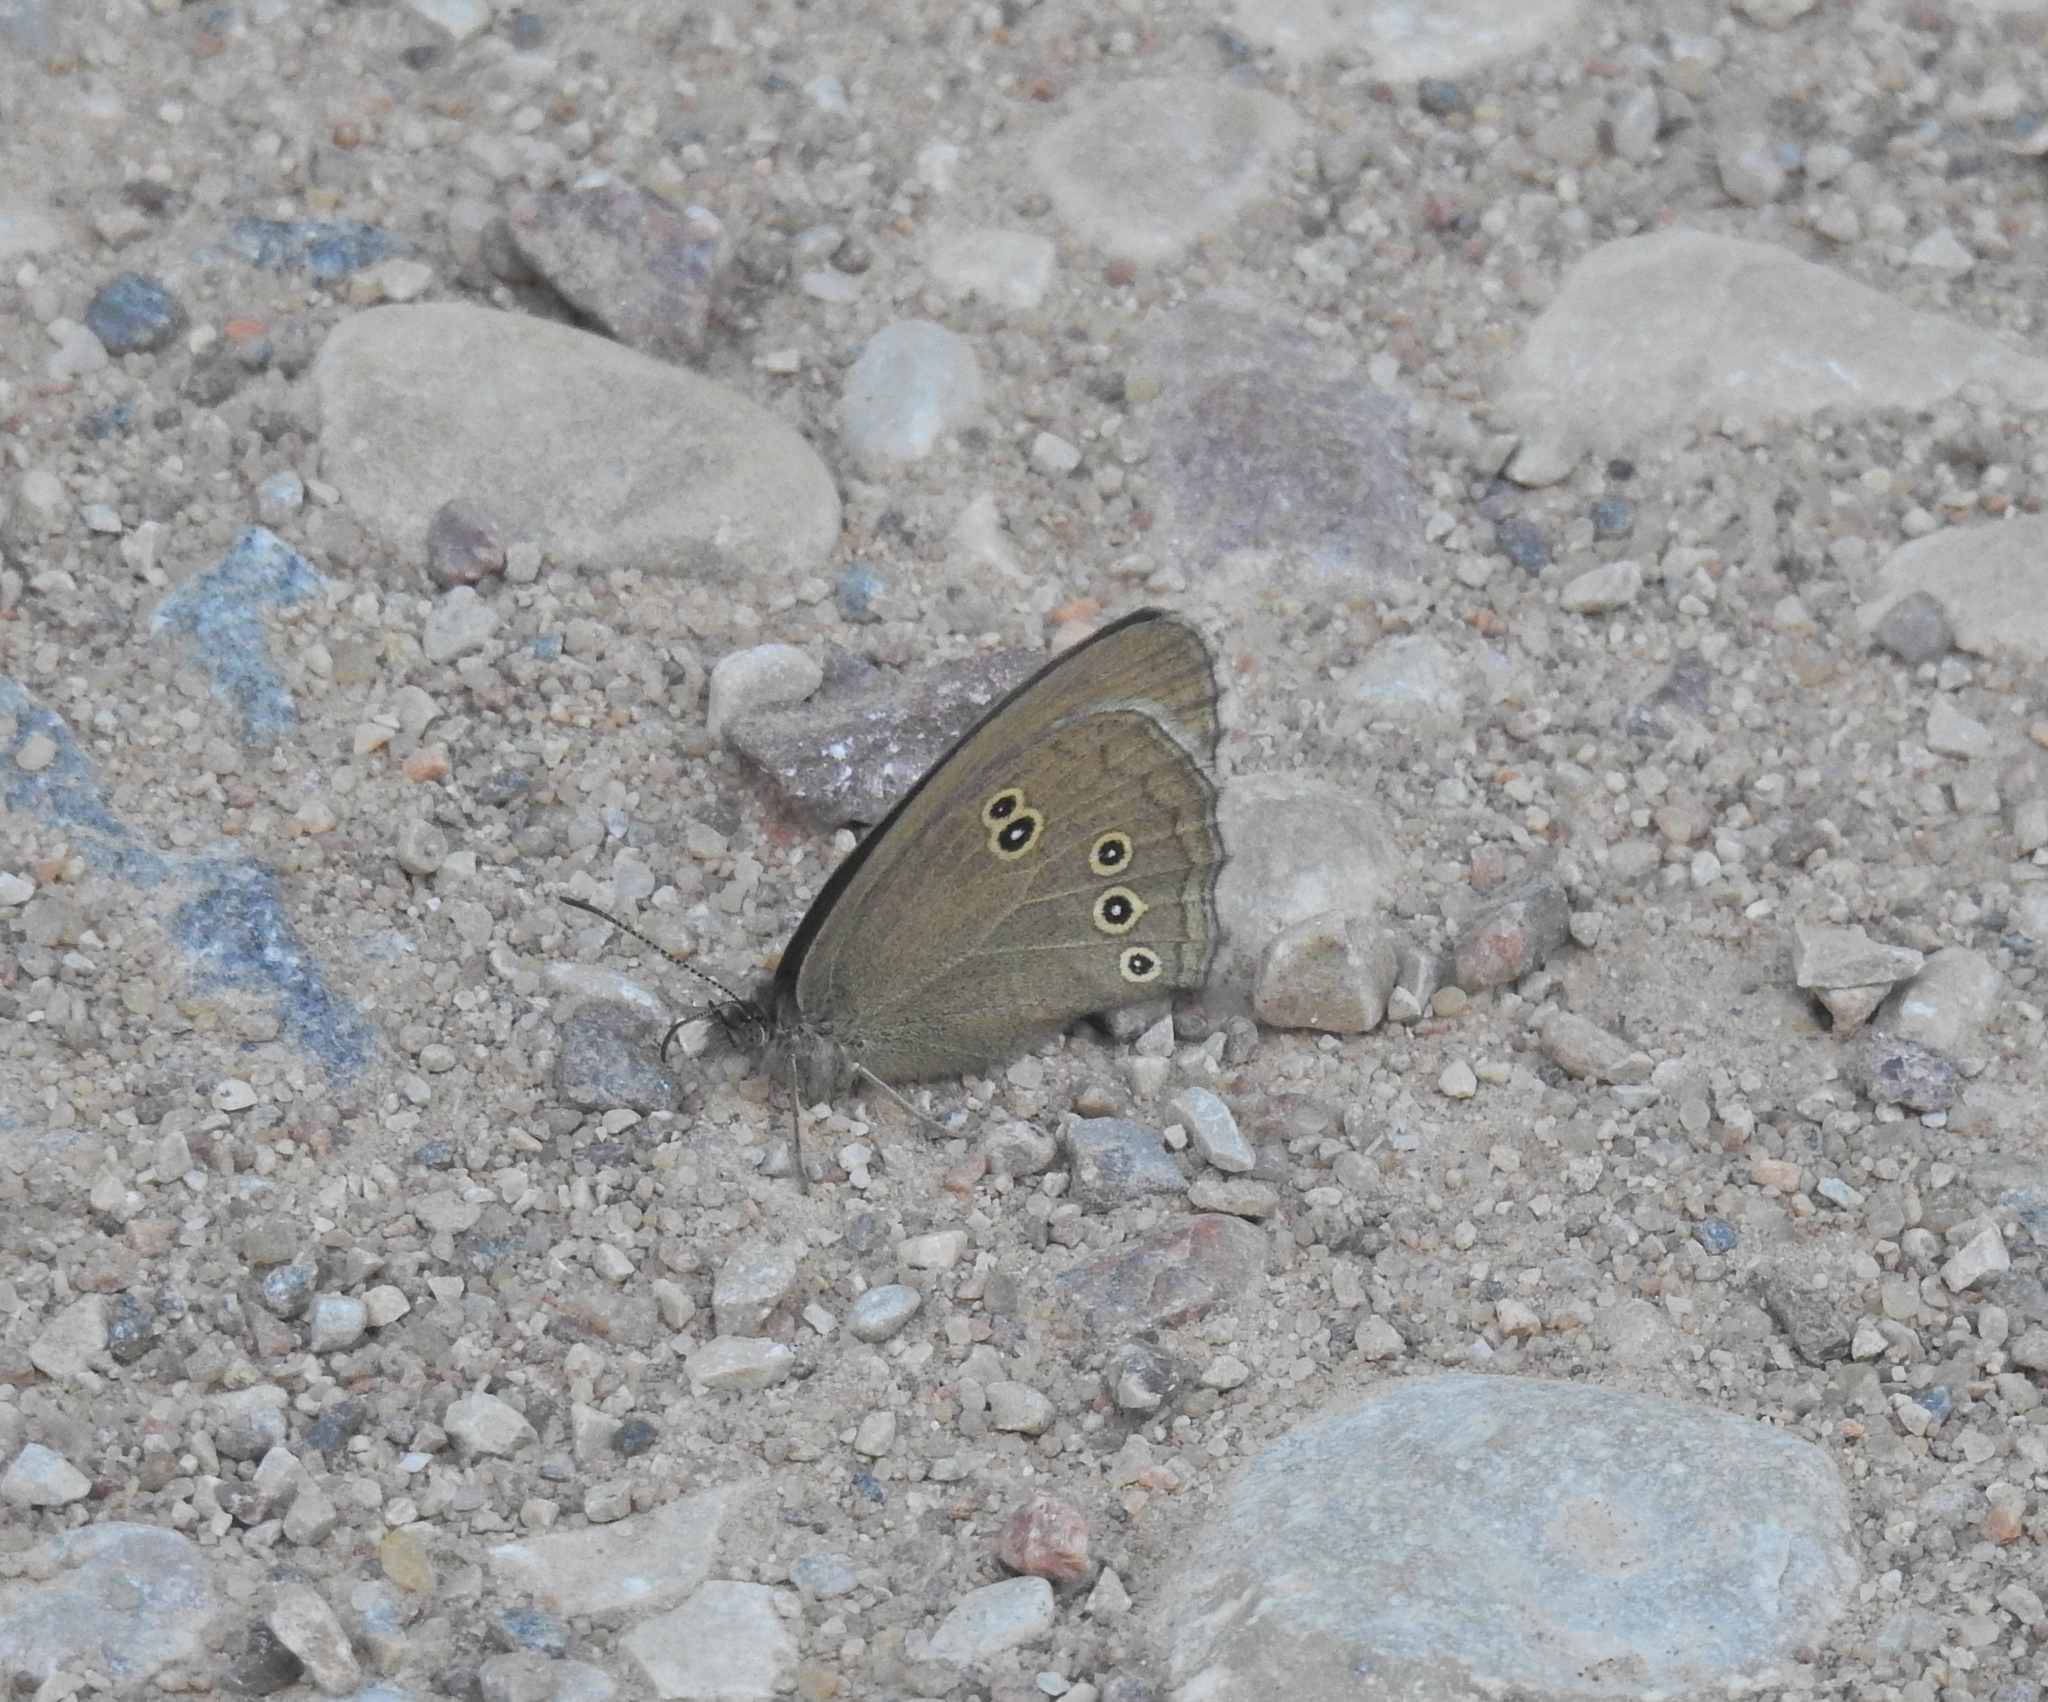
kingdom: Animalia
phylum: Arthropoda
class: Insecta
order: Lepidoptera
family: Nymphalidae
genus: Aphantopus
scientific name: Aphantopus hyperantus
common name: Ringlet
